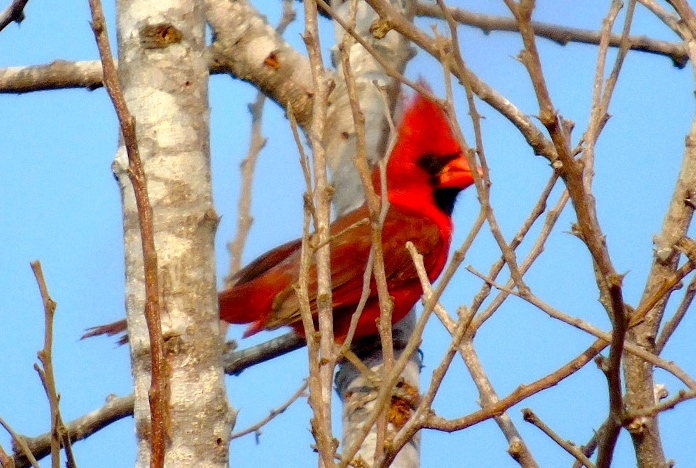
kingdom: Animalia
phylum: Chordata
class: Aves
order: Passeriformes
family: Cardinalidae
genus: Cardinalis
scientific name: Cardinalis cardinalis
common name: Northern cardinal
